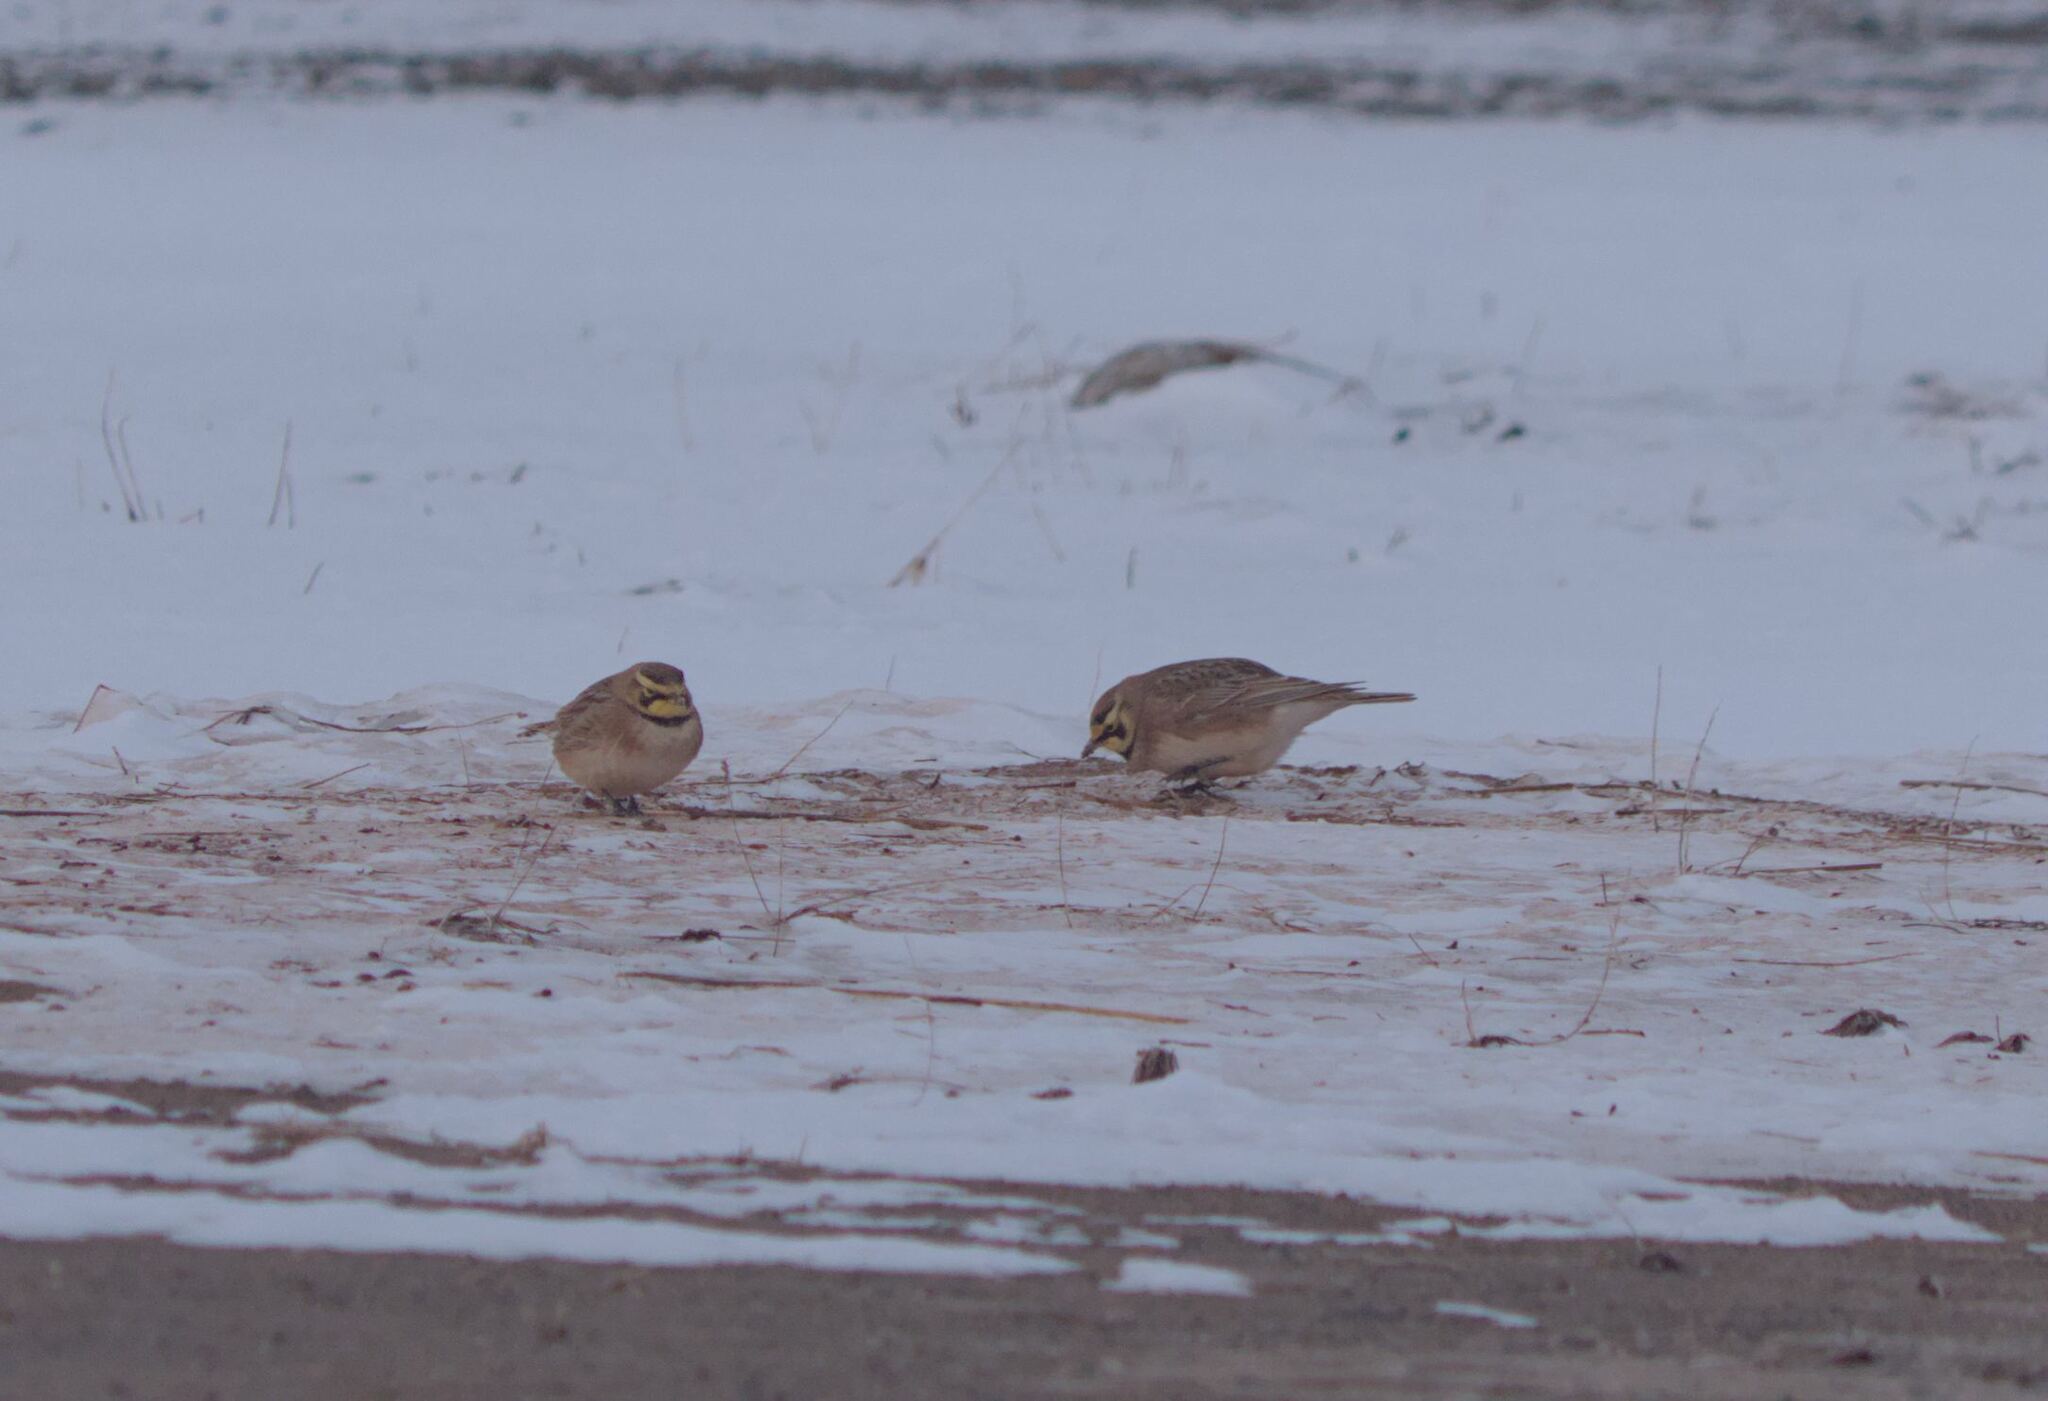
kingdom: Animalia
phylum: Chordata
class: Aves
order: Passeriformes
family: Alaudidae
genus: Eremophila
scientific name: Eremophila alpestris
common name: Horned lark
